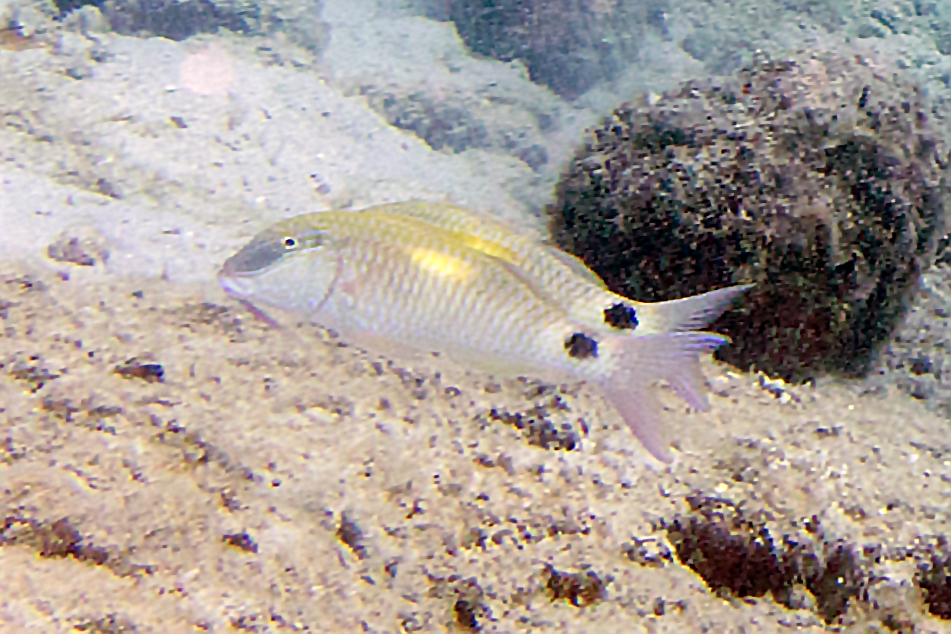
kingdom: Animalia
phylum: Chordata
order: Perciformes
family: Mullidae
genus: Parupeneus
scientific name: Parupeneus indicus
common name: Indian goatfish
